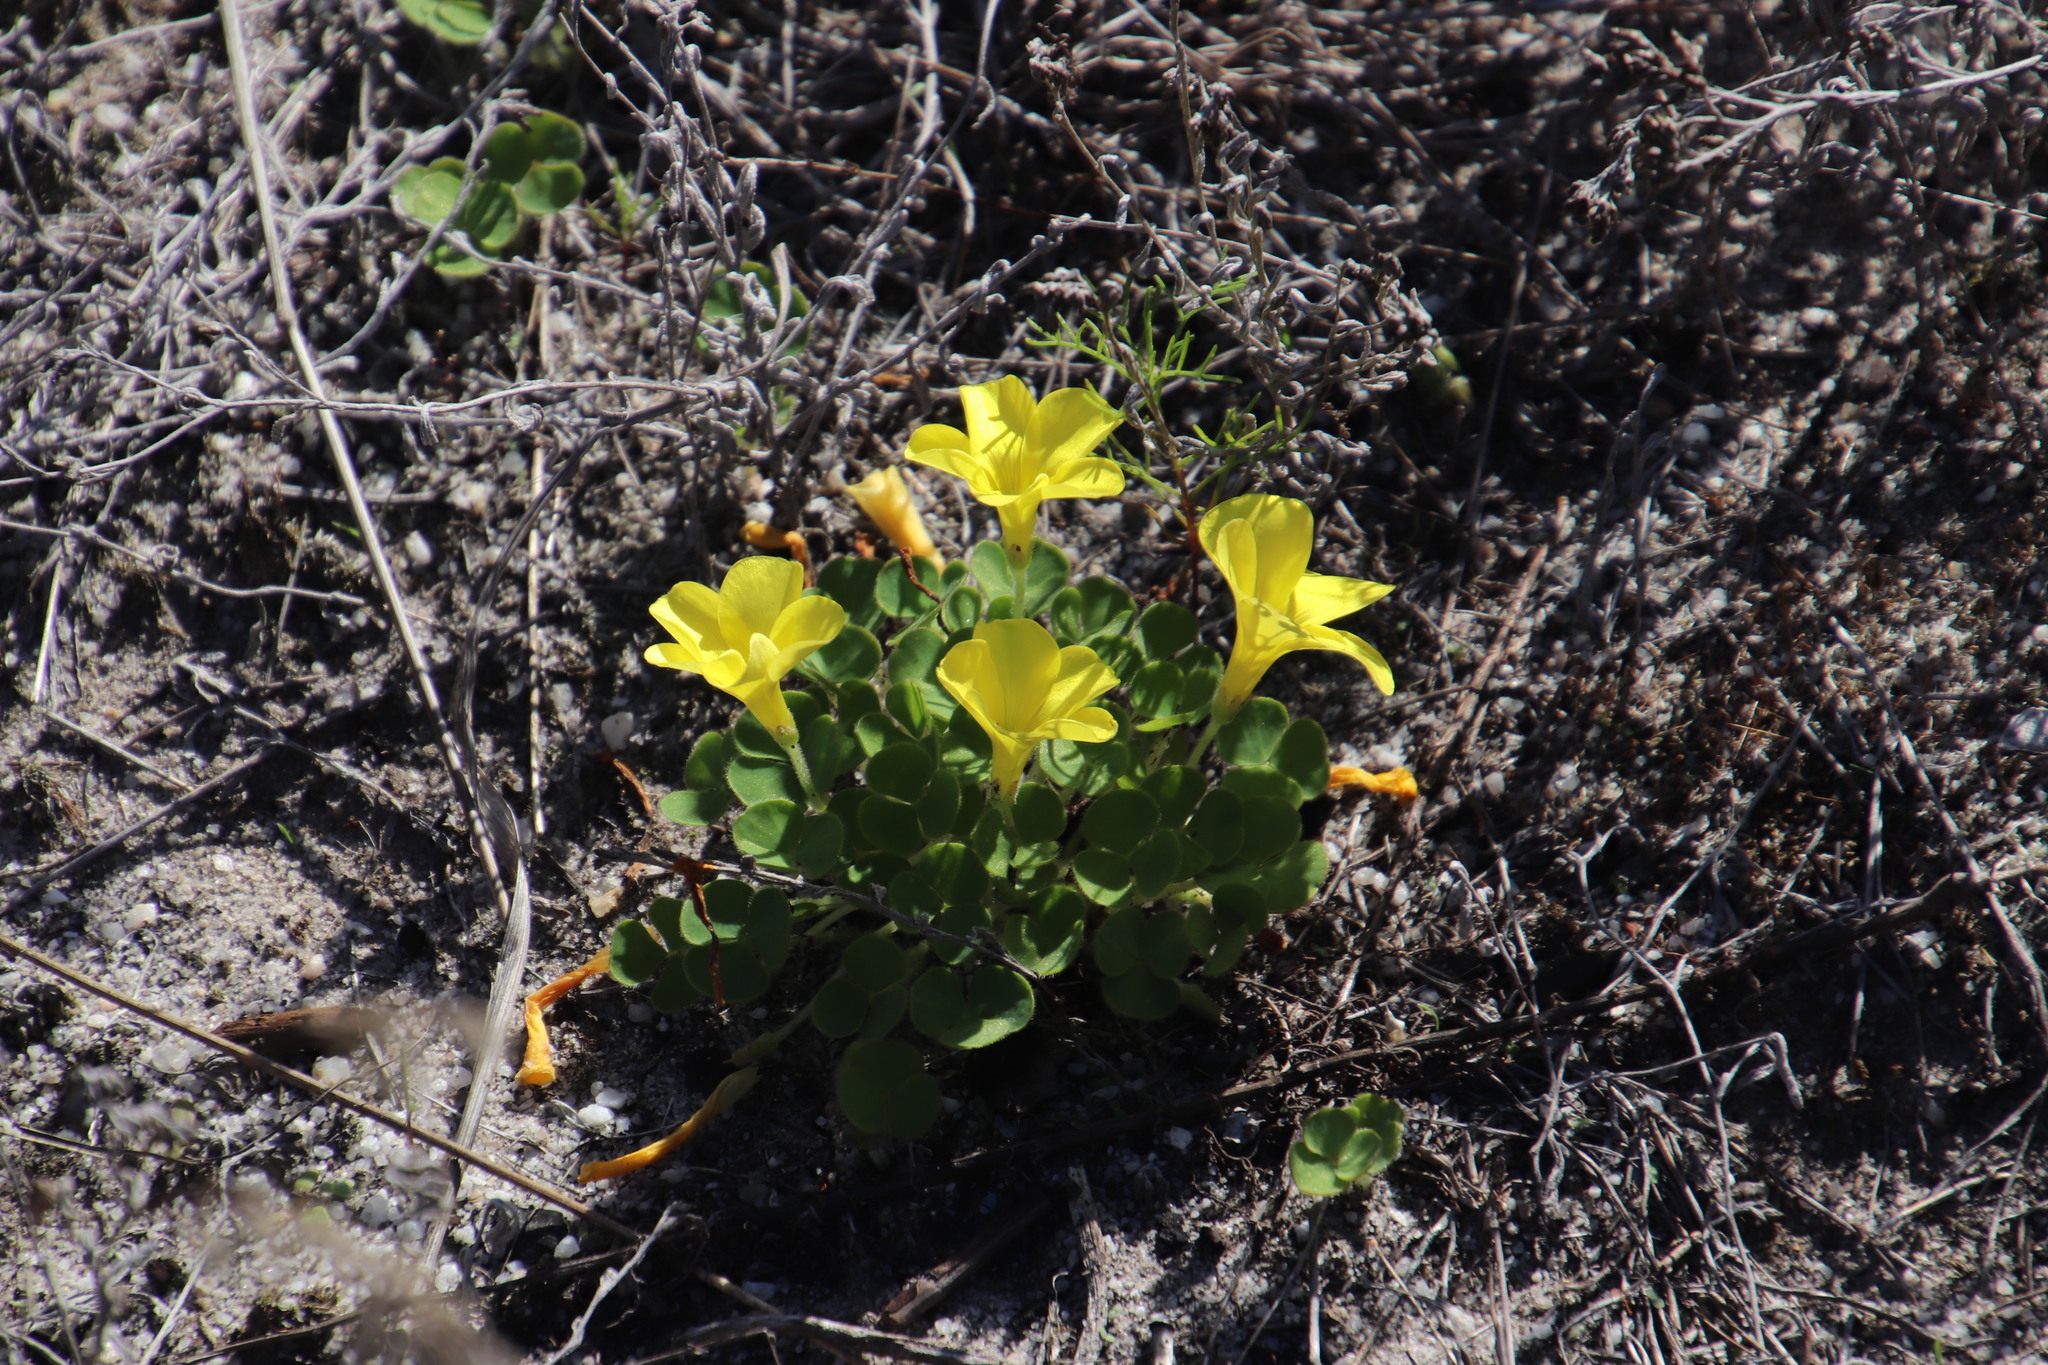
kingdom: Plantae
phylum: Tracheophyta
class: Magnoliopsida
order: Oxalidales
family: Oxalidaceae
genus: Oxalis
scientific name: Oxalis luteola
